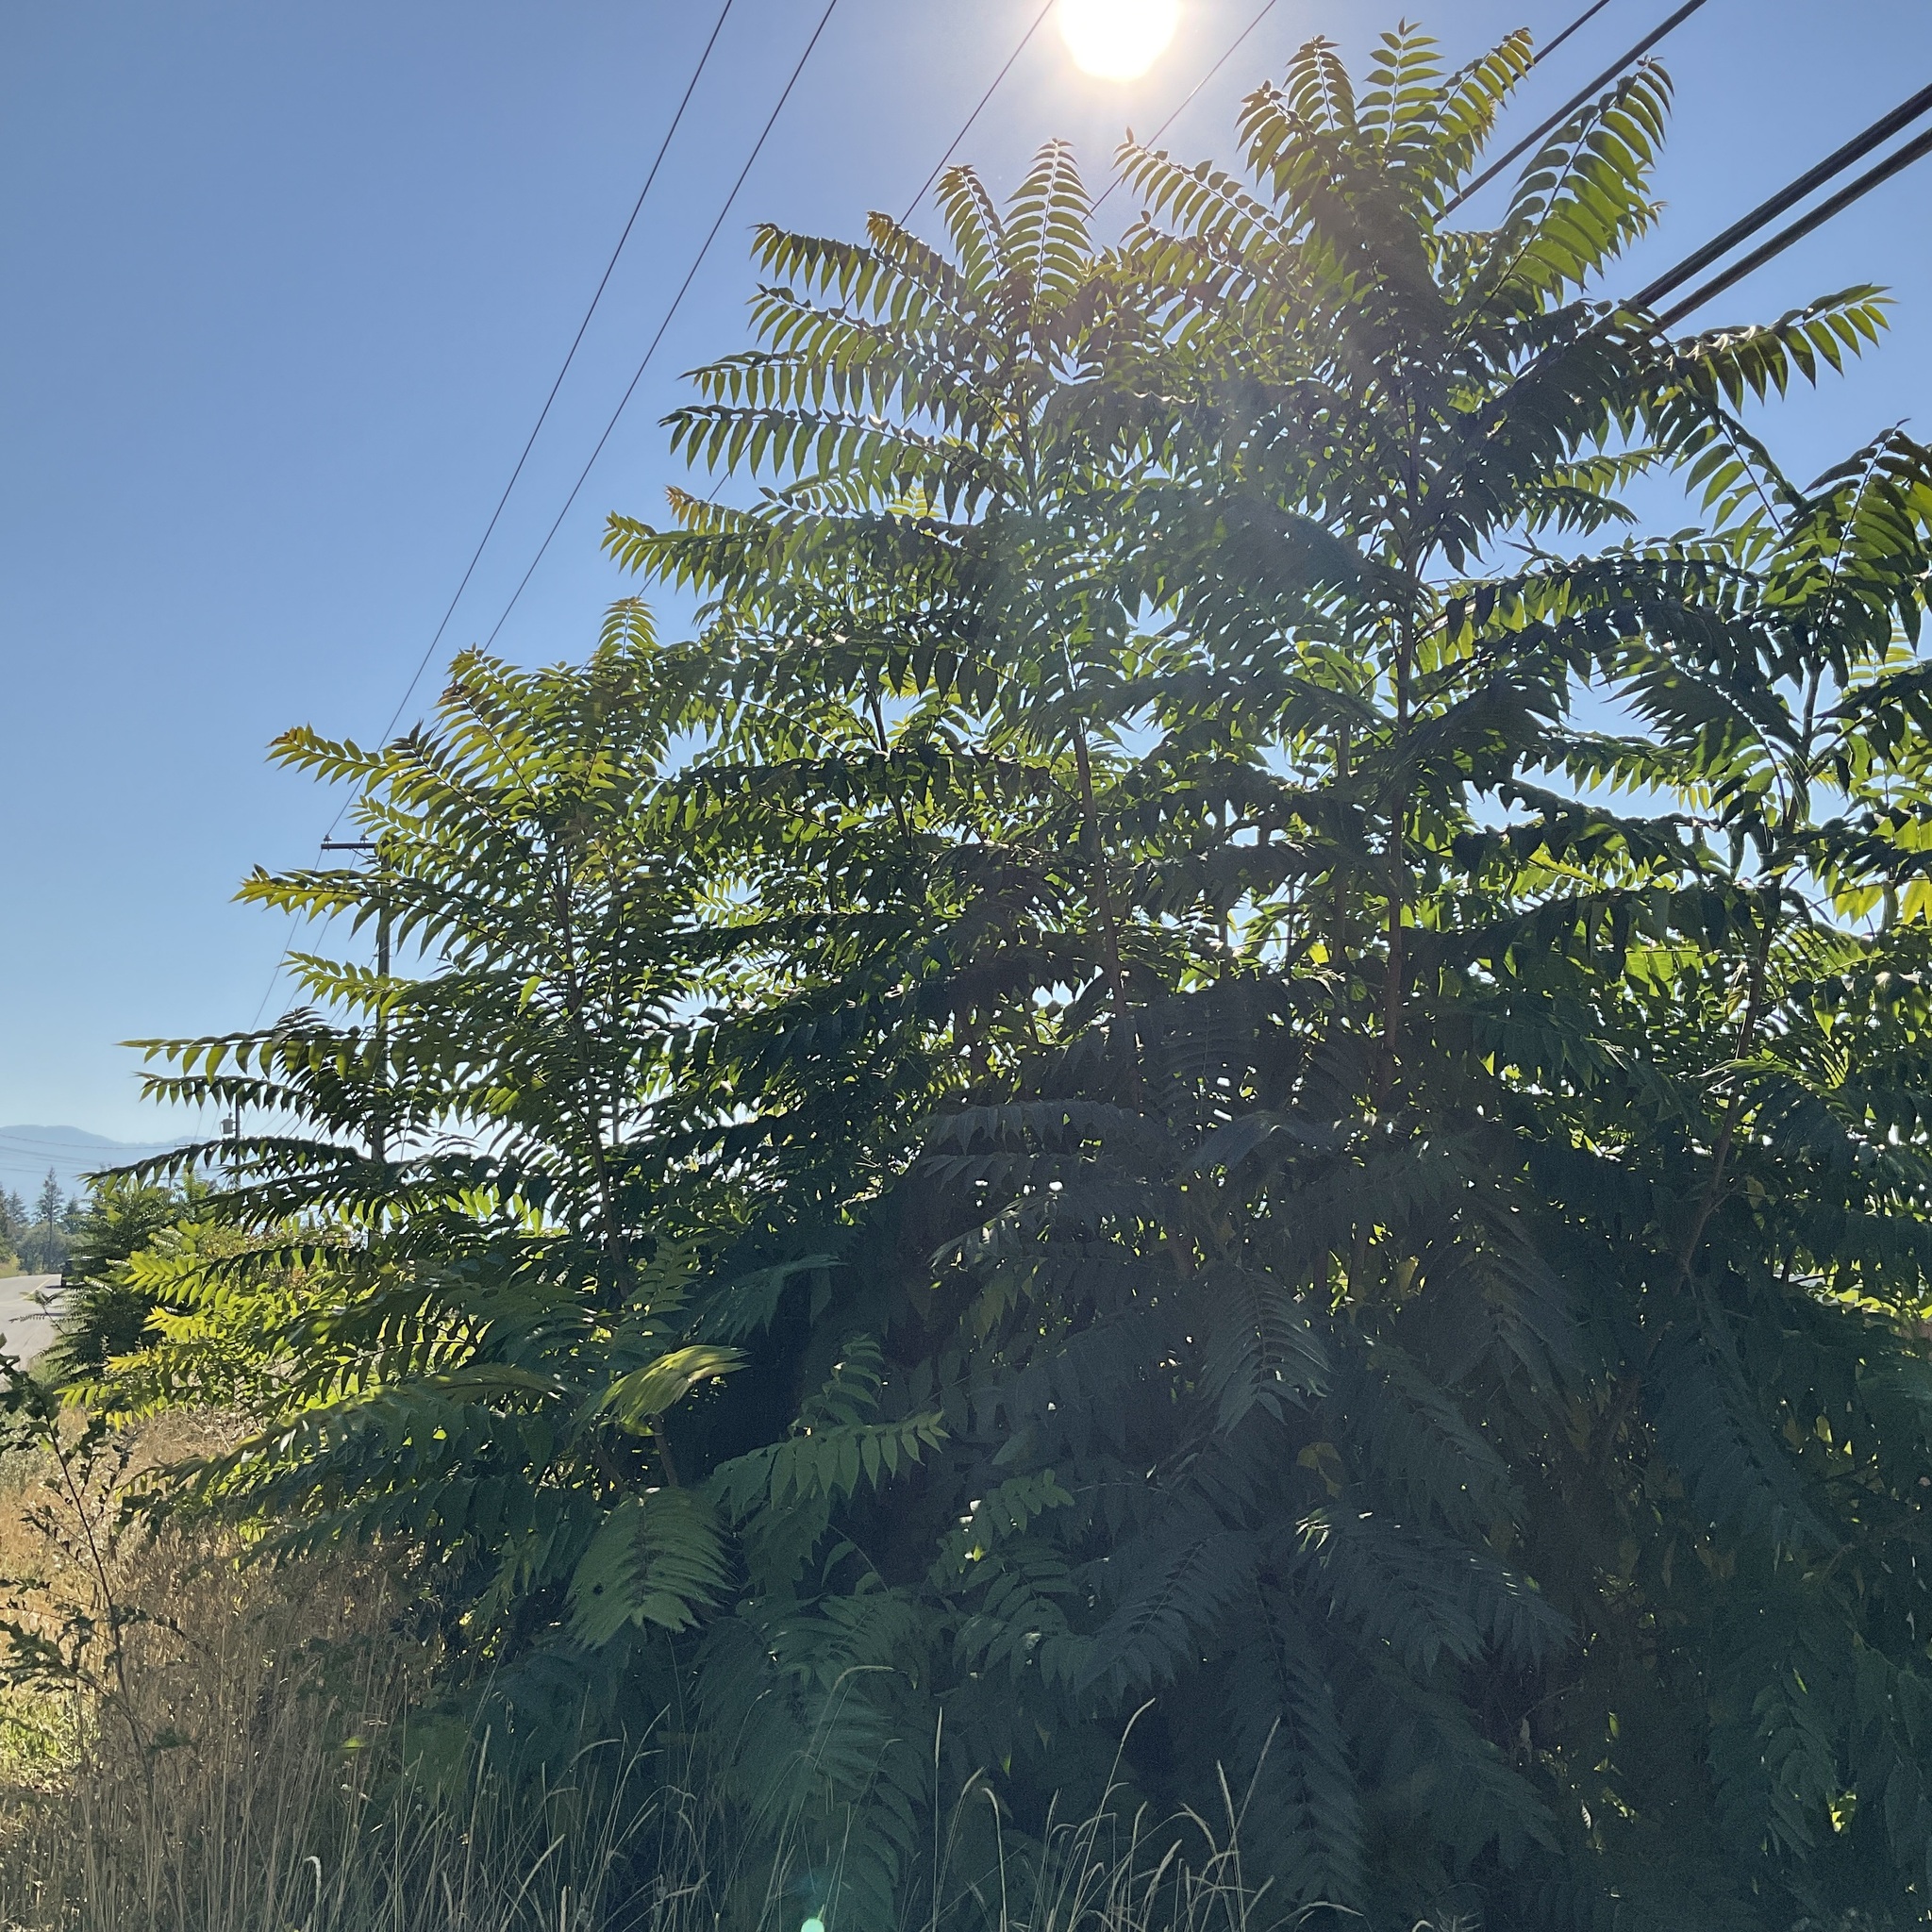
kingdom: Plantae
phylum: Tracheophyta
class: Magnoliopsida
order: Sapindales
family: Simaroubaceae
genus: Ailanthus
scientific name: Ailanthus altissima
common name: Tree-of-heaven
